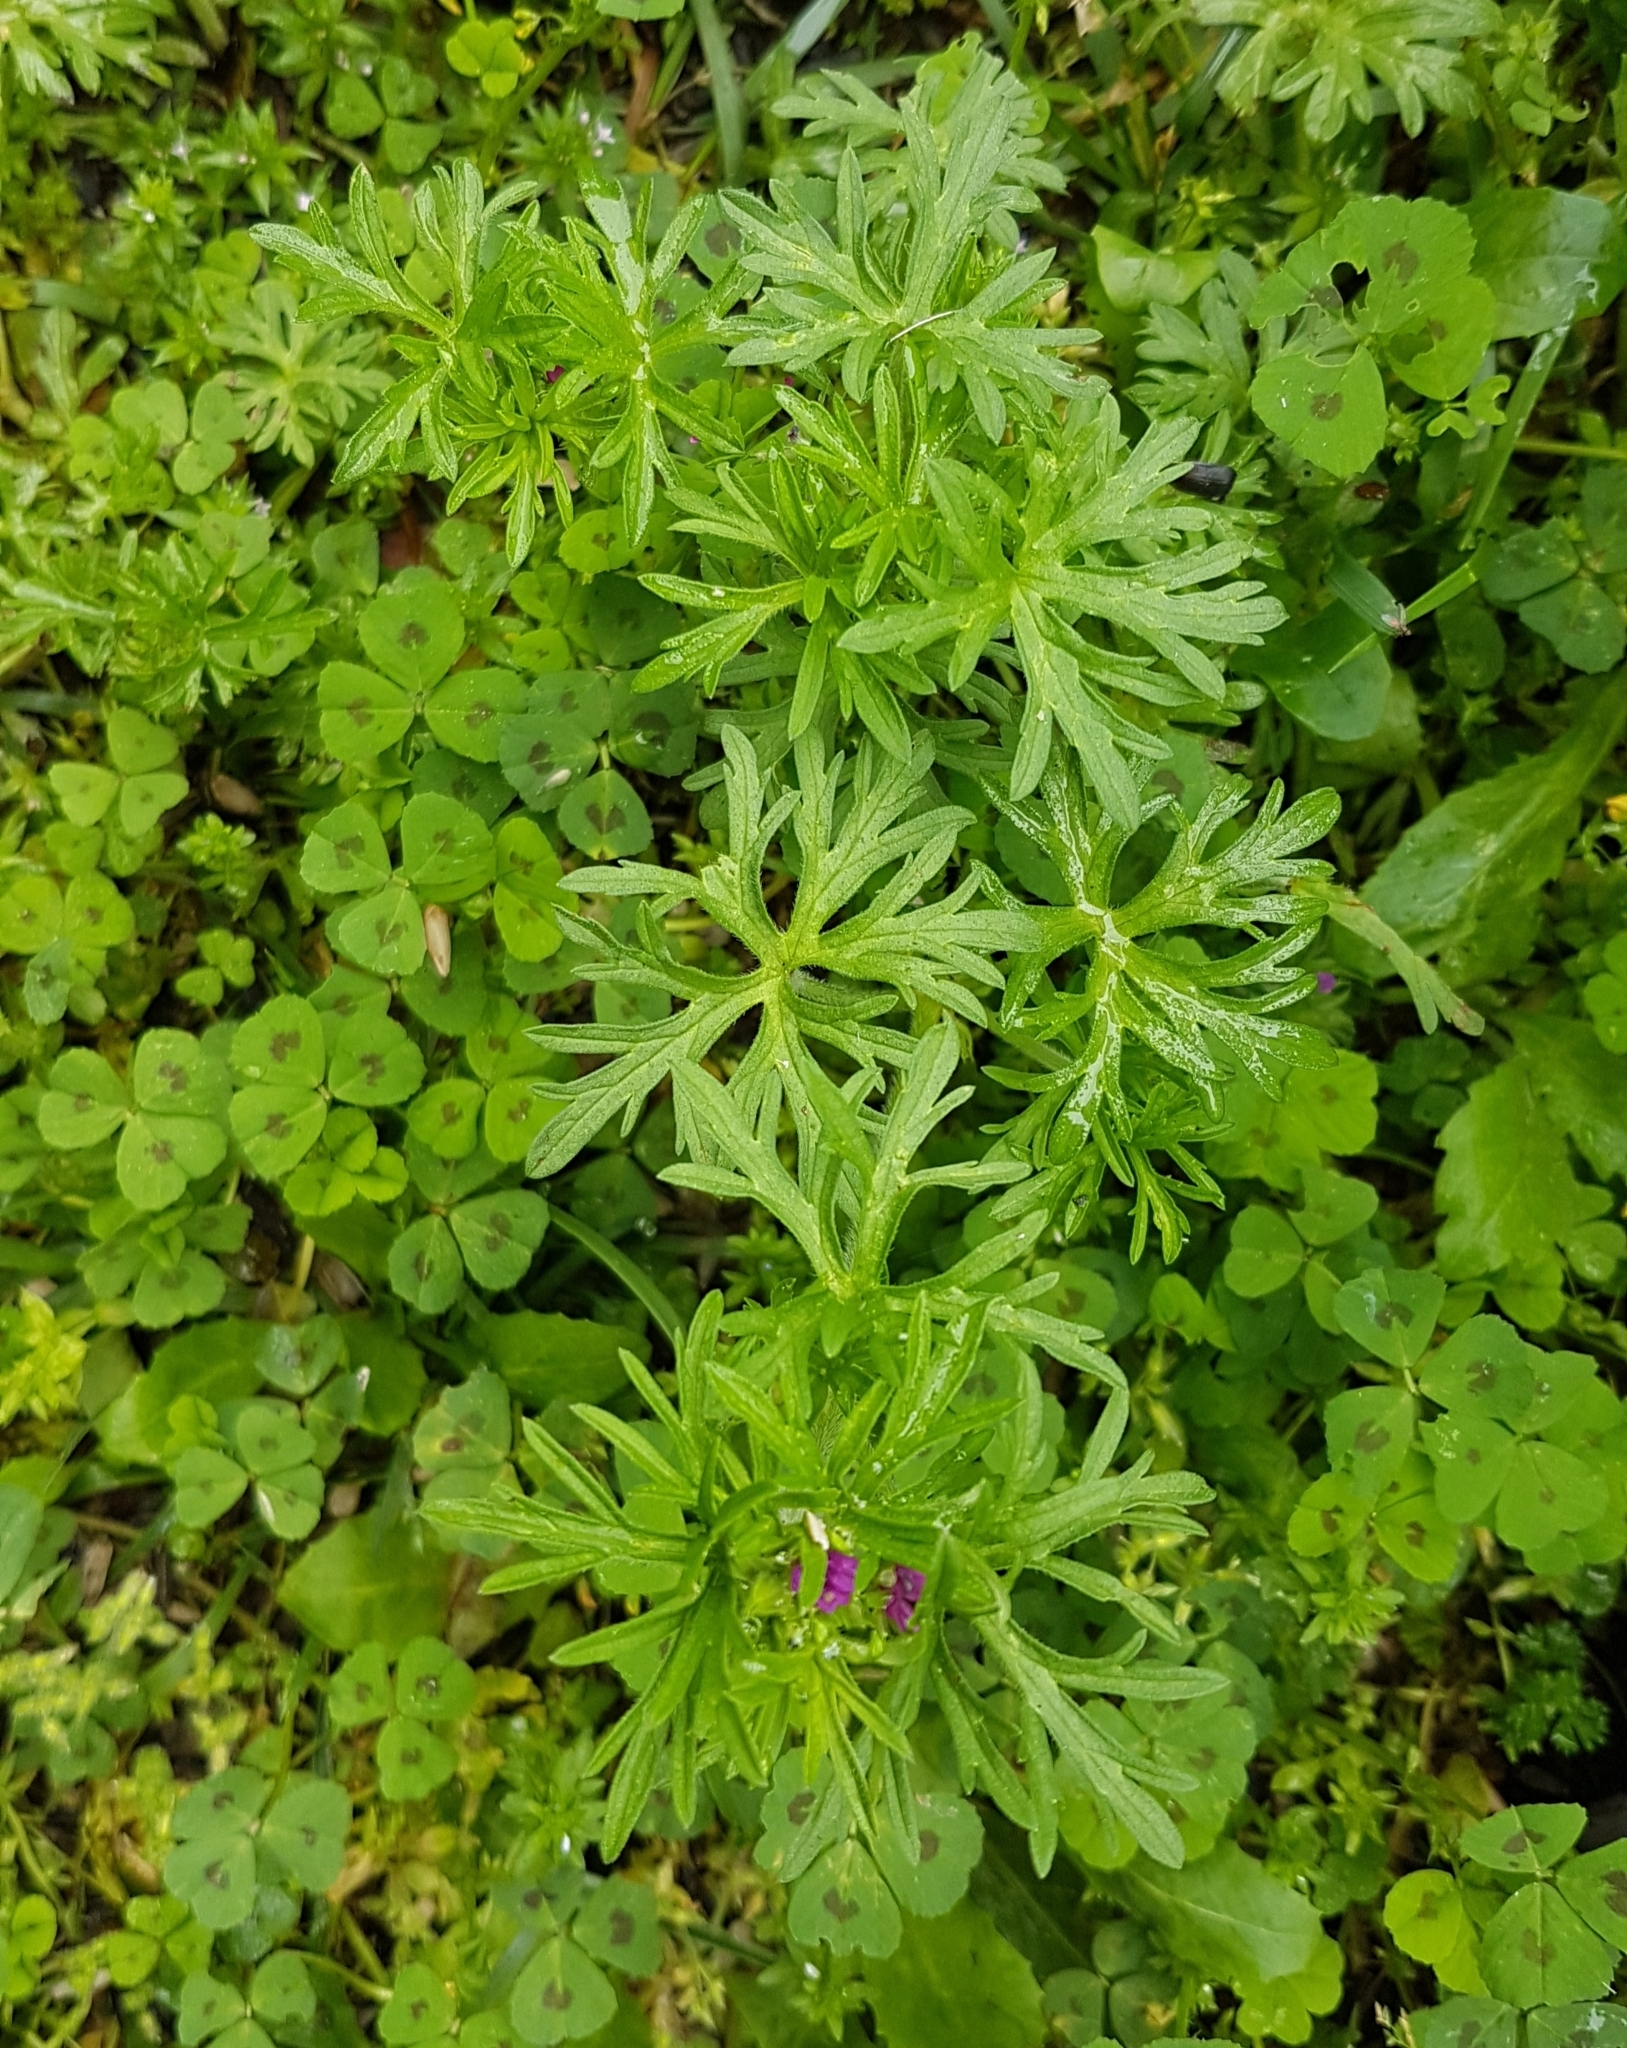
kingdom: Plantae
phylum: Tracheophyta
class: Magnoliopsida
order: Geraniales
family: Geraniaceae
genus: Geranium
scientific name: Geranium dissectum
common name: Cut-leaved crane's-bill
